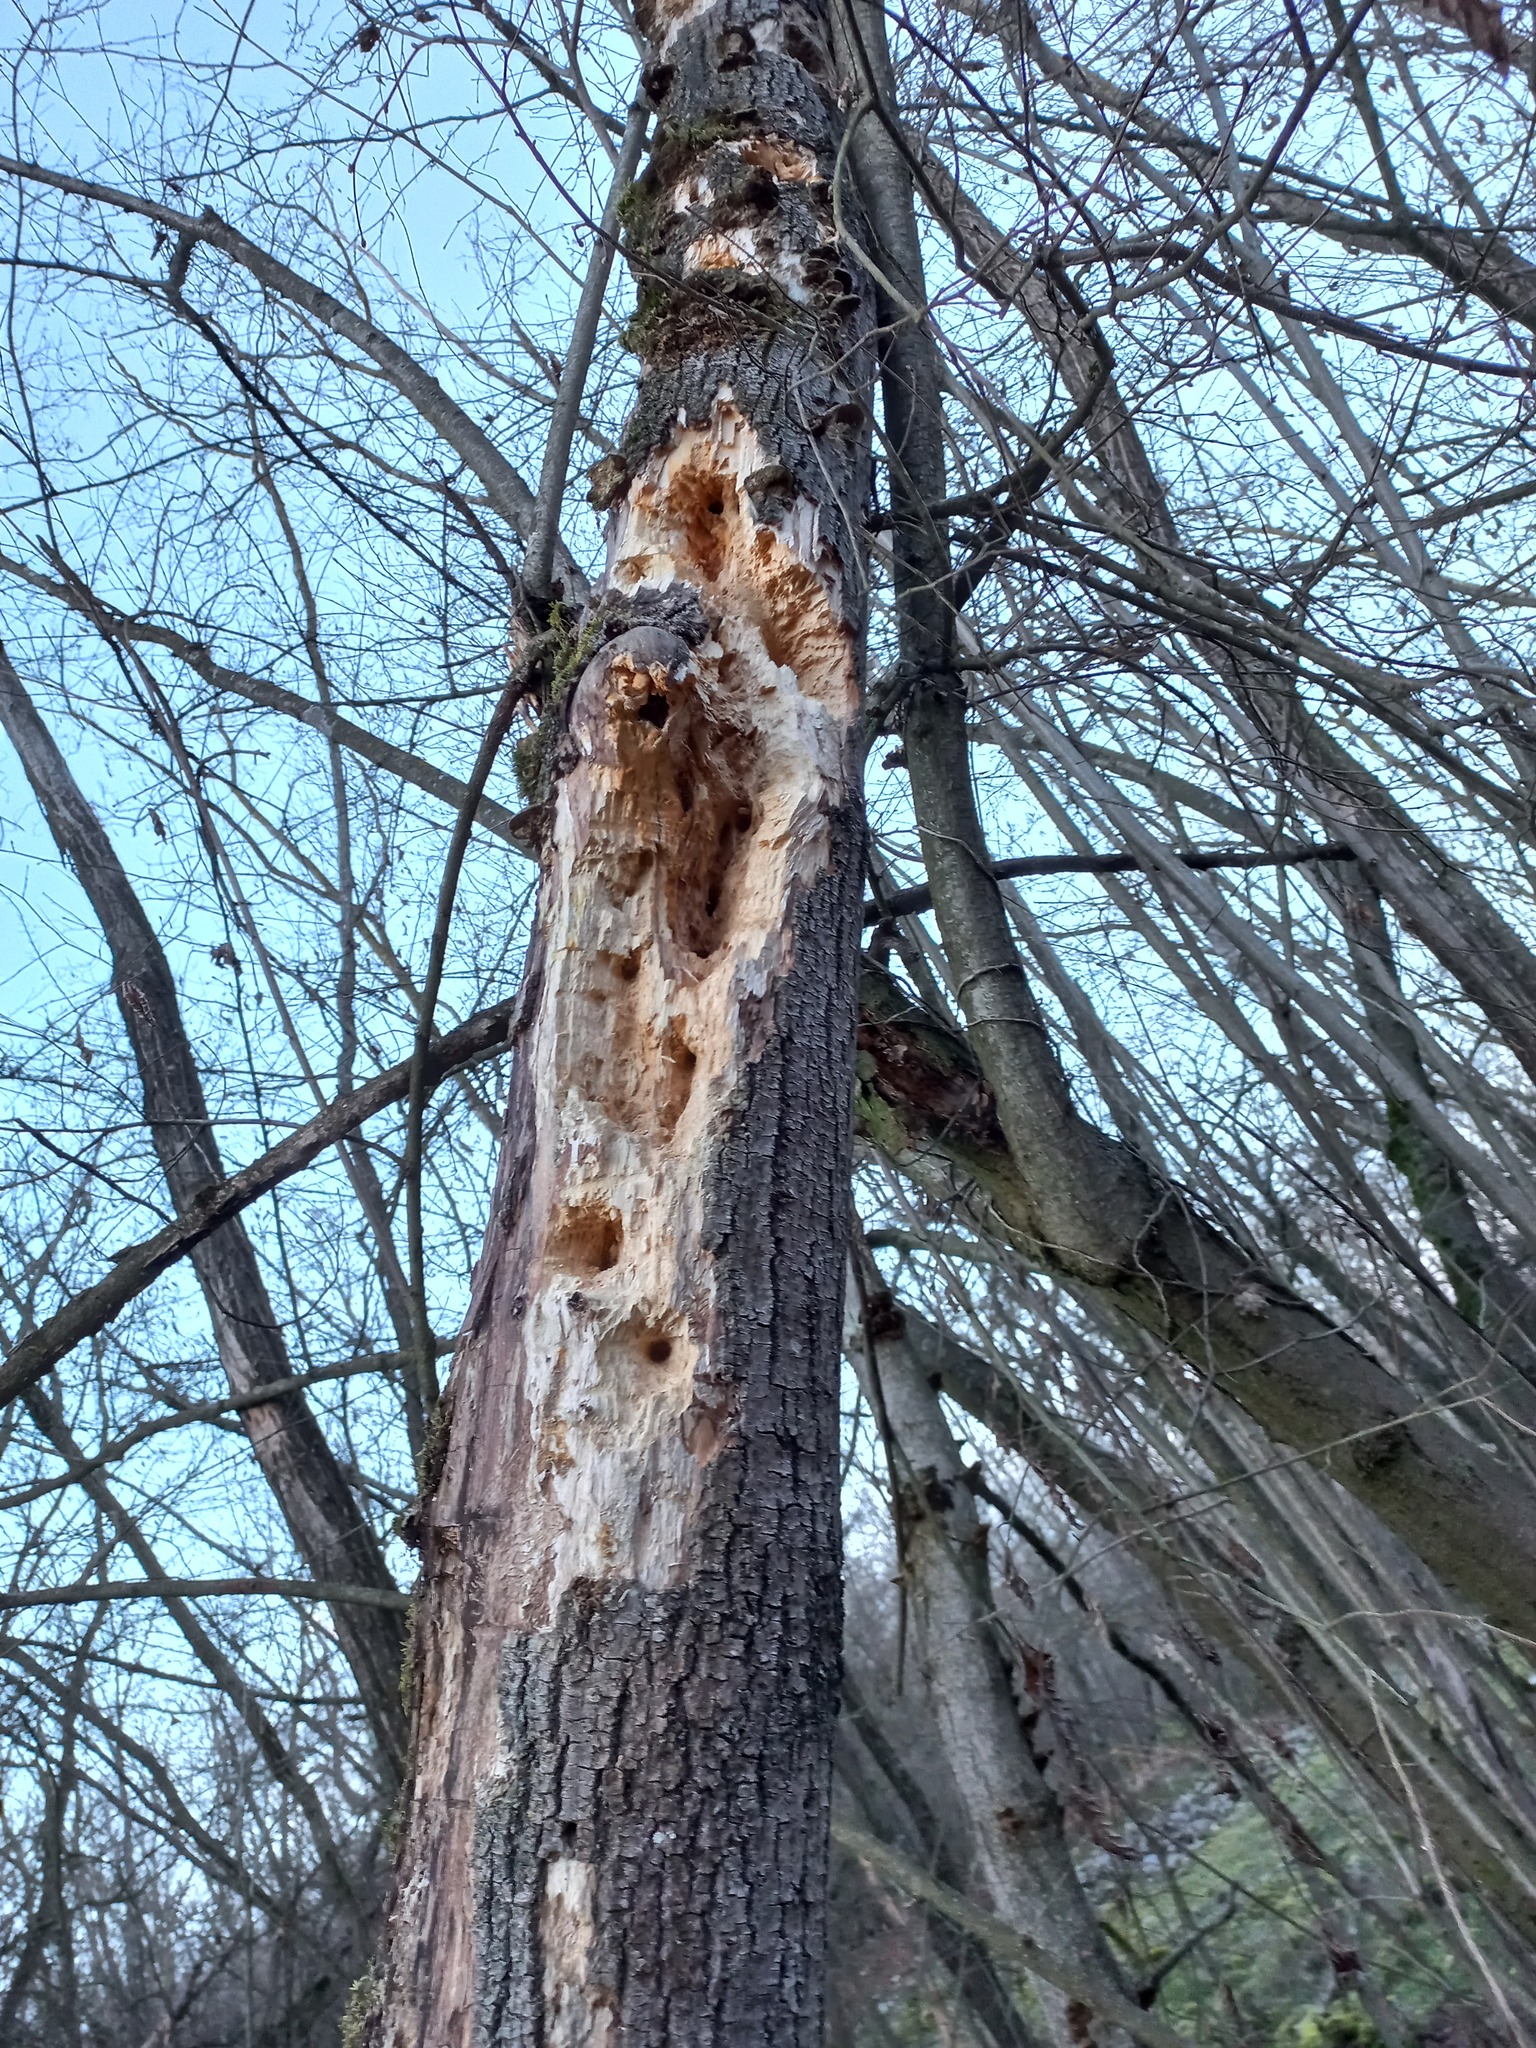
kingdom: Animalia
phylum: Chordata
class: Aves
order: Piciformes
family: Picidae
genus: Dryocopus
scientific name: Dryocopus martius
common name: Black woodpecker
